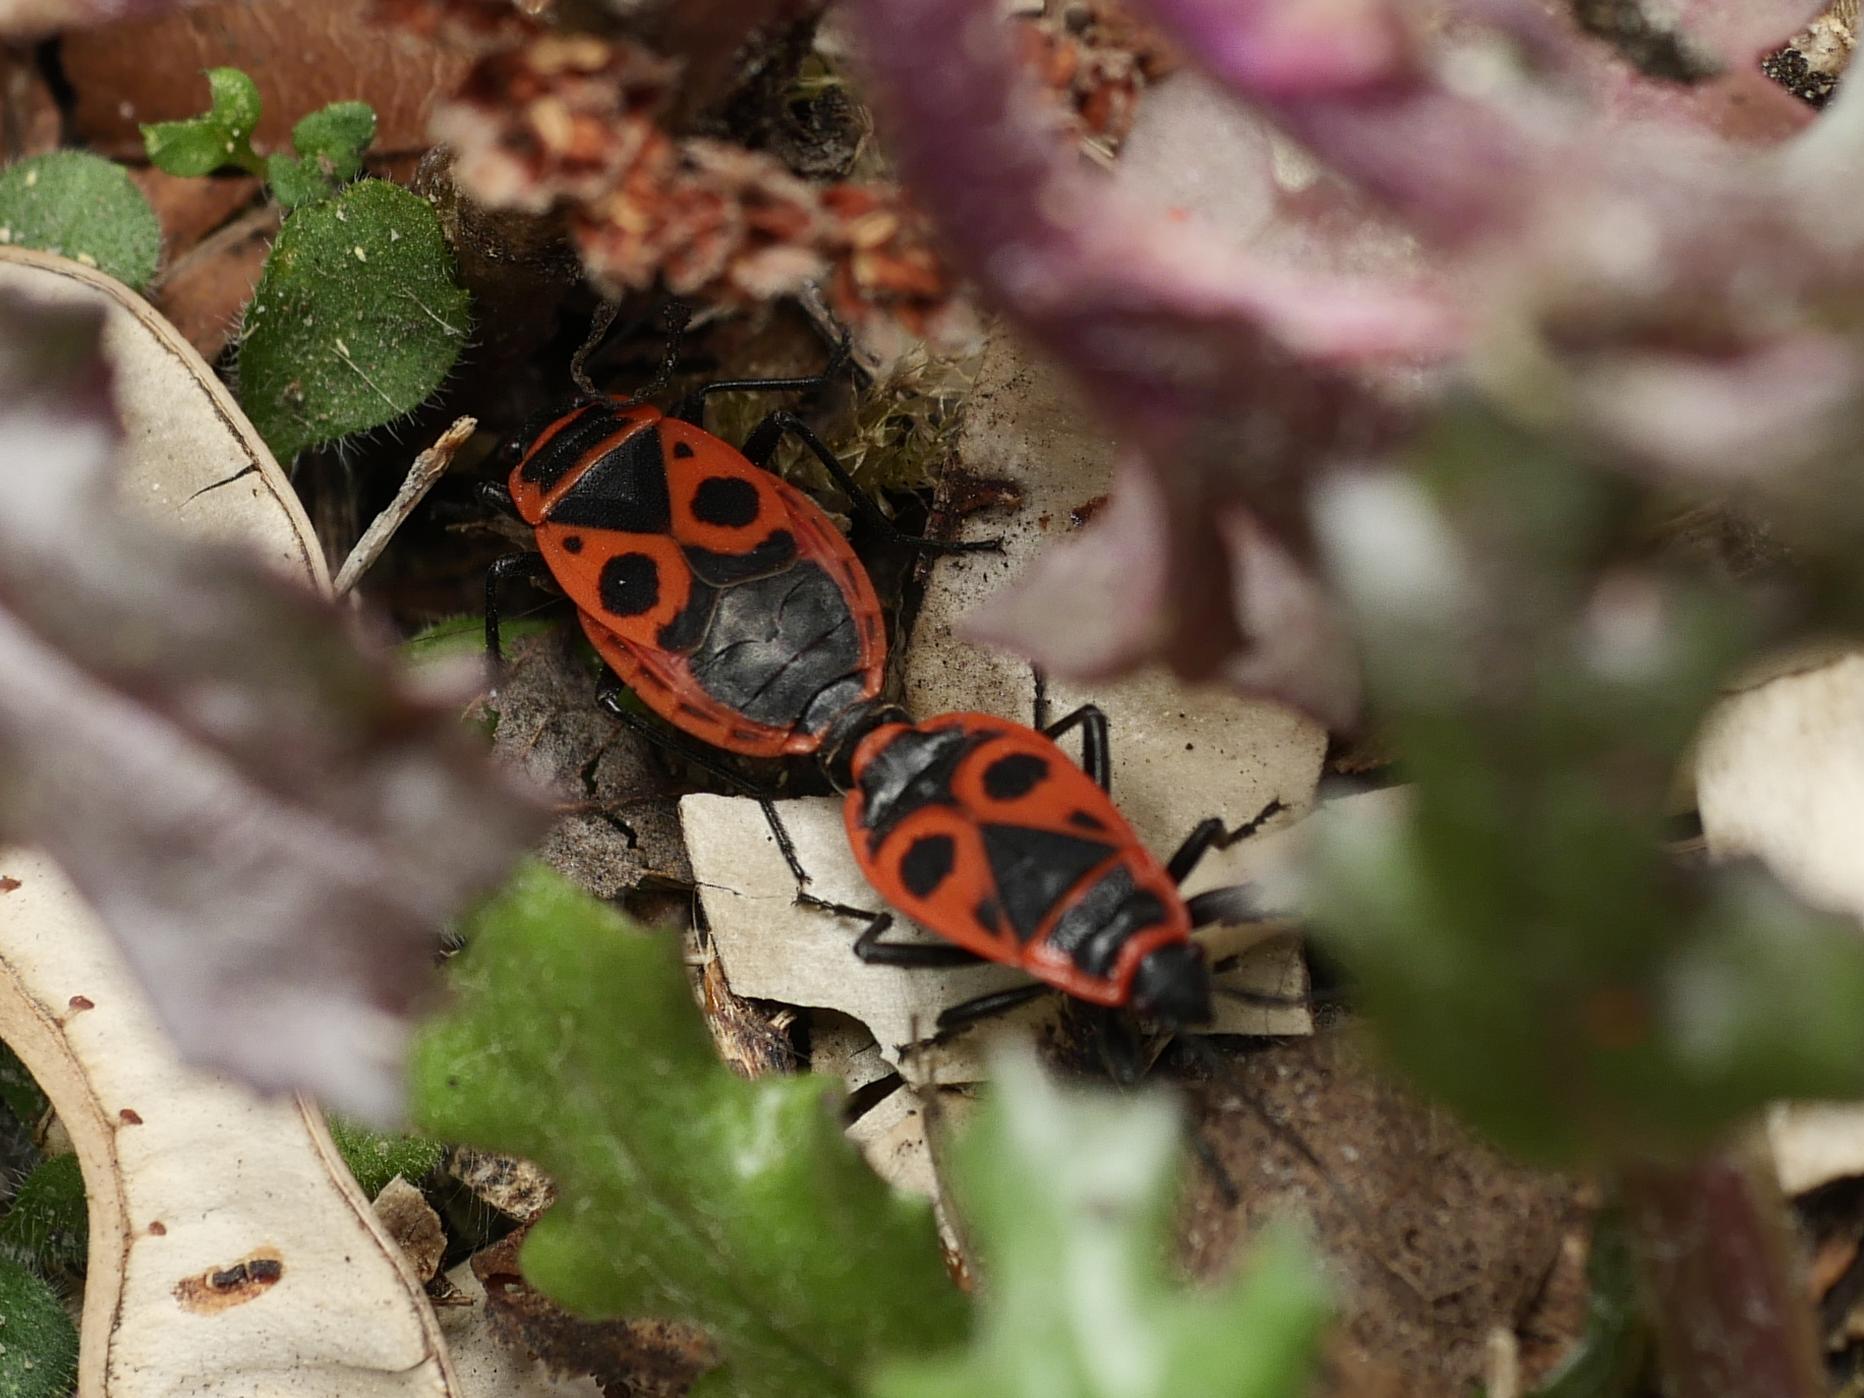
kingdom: Animalia
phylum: Arthropoda
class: Insecta
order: Hemiptera
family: Pyrrhocoridae
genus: Pyrrhocoris
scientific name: Pyrrhocoris apterus
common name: Firebug
